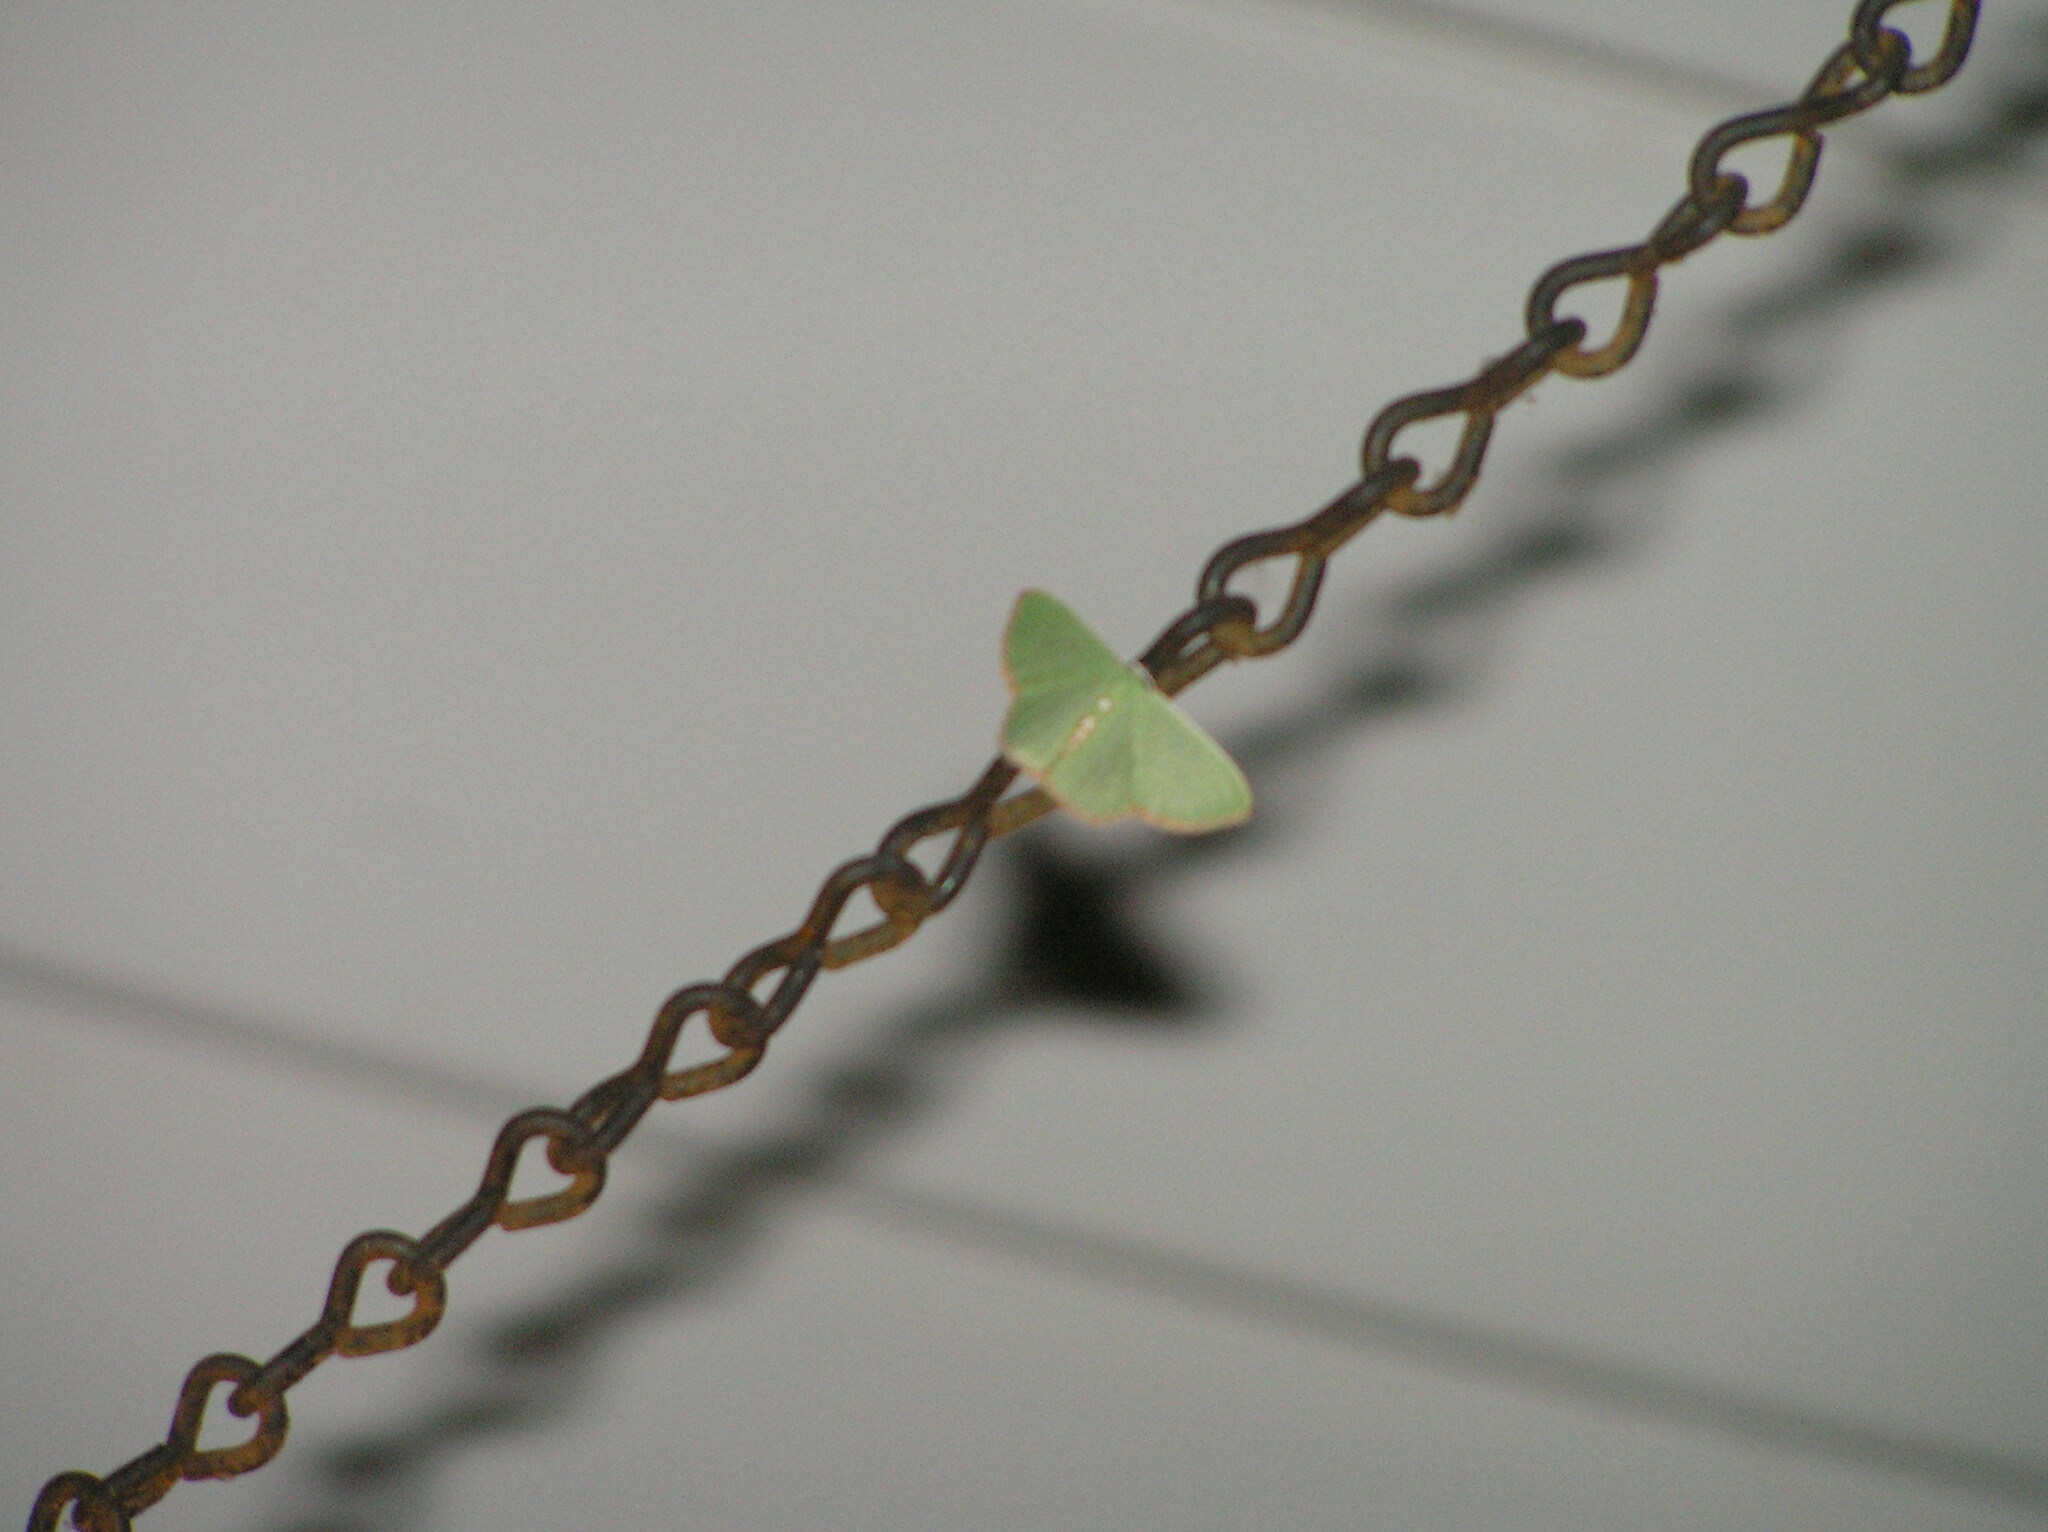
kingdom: Animalia
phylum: Arthropoda
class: Insecta
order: Lepidoptera
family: Geometridae
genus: Nemoria
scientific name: Nemoria lixaria
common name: Red-bordered emerald
